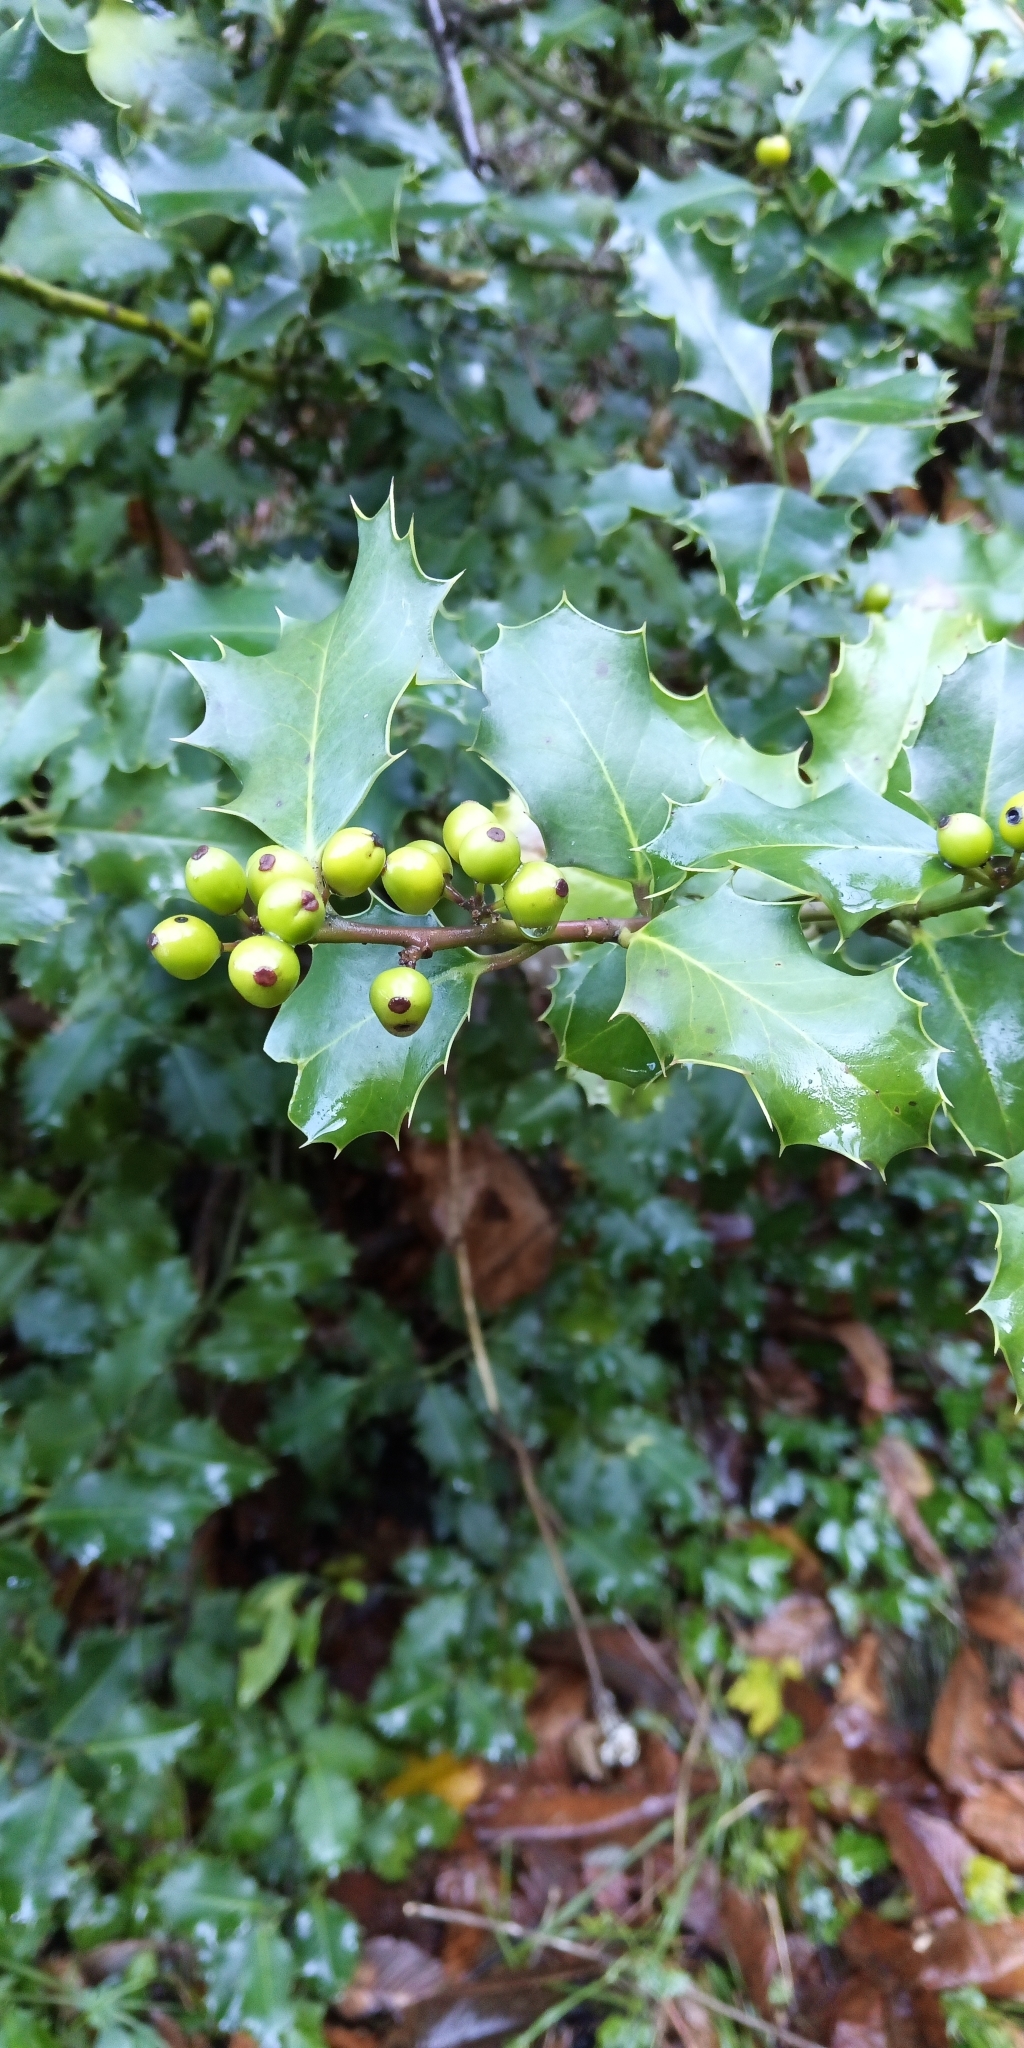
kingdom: Plantae
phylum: Tracheophyta
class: Magnoliopsida
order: Aquifoliales
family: Aquifoliaceae
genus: Ilex
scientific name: Ilex aquifolium
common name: English holly
